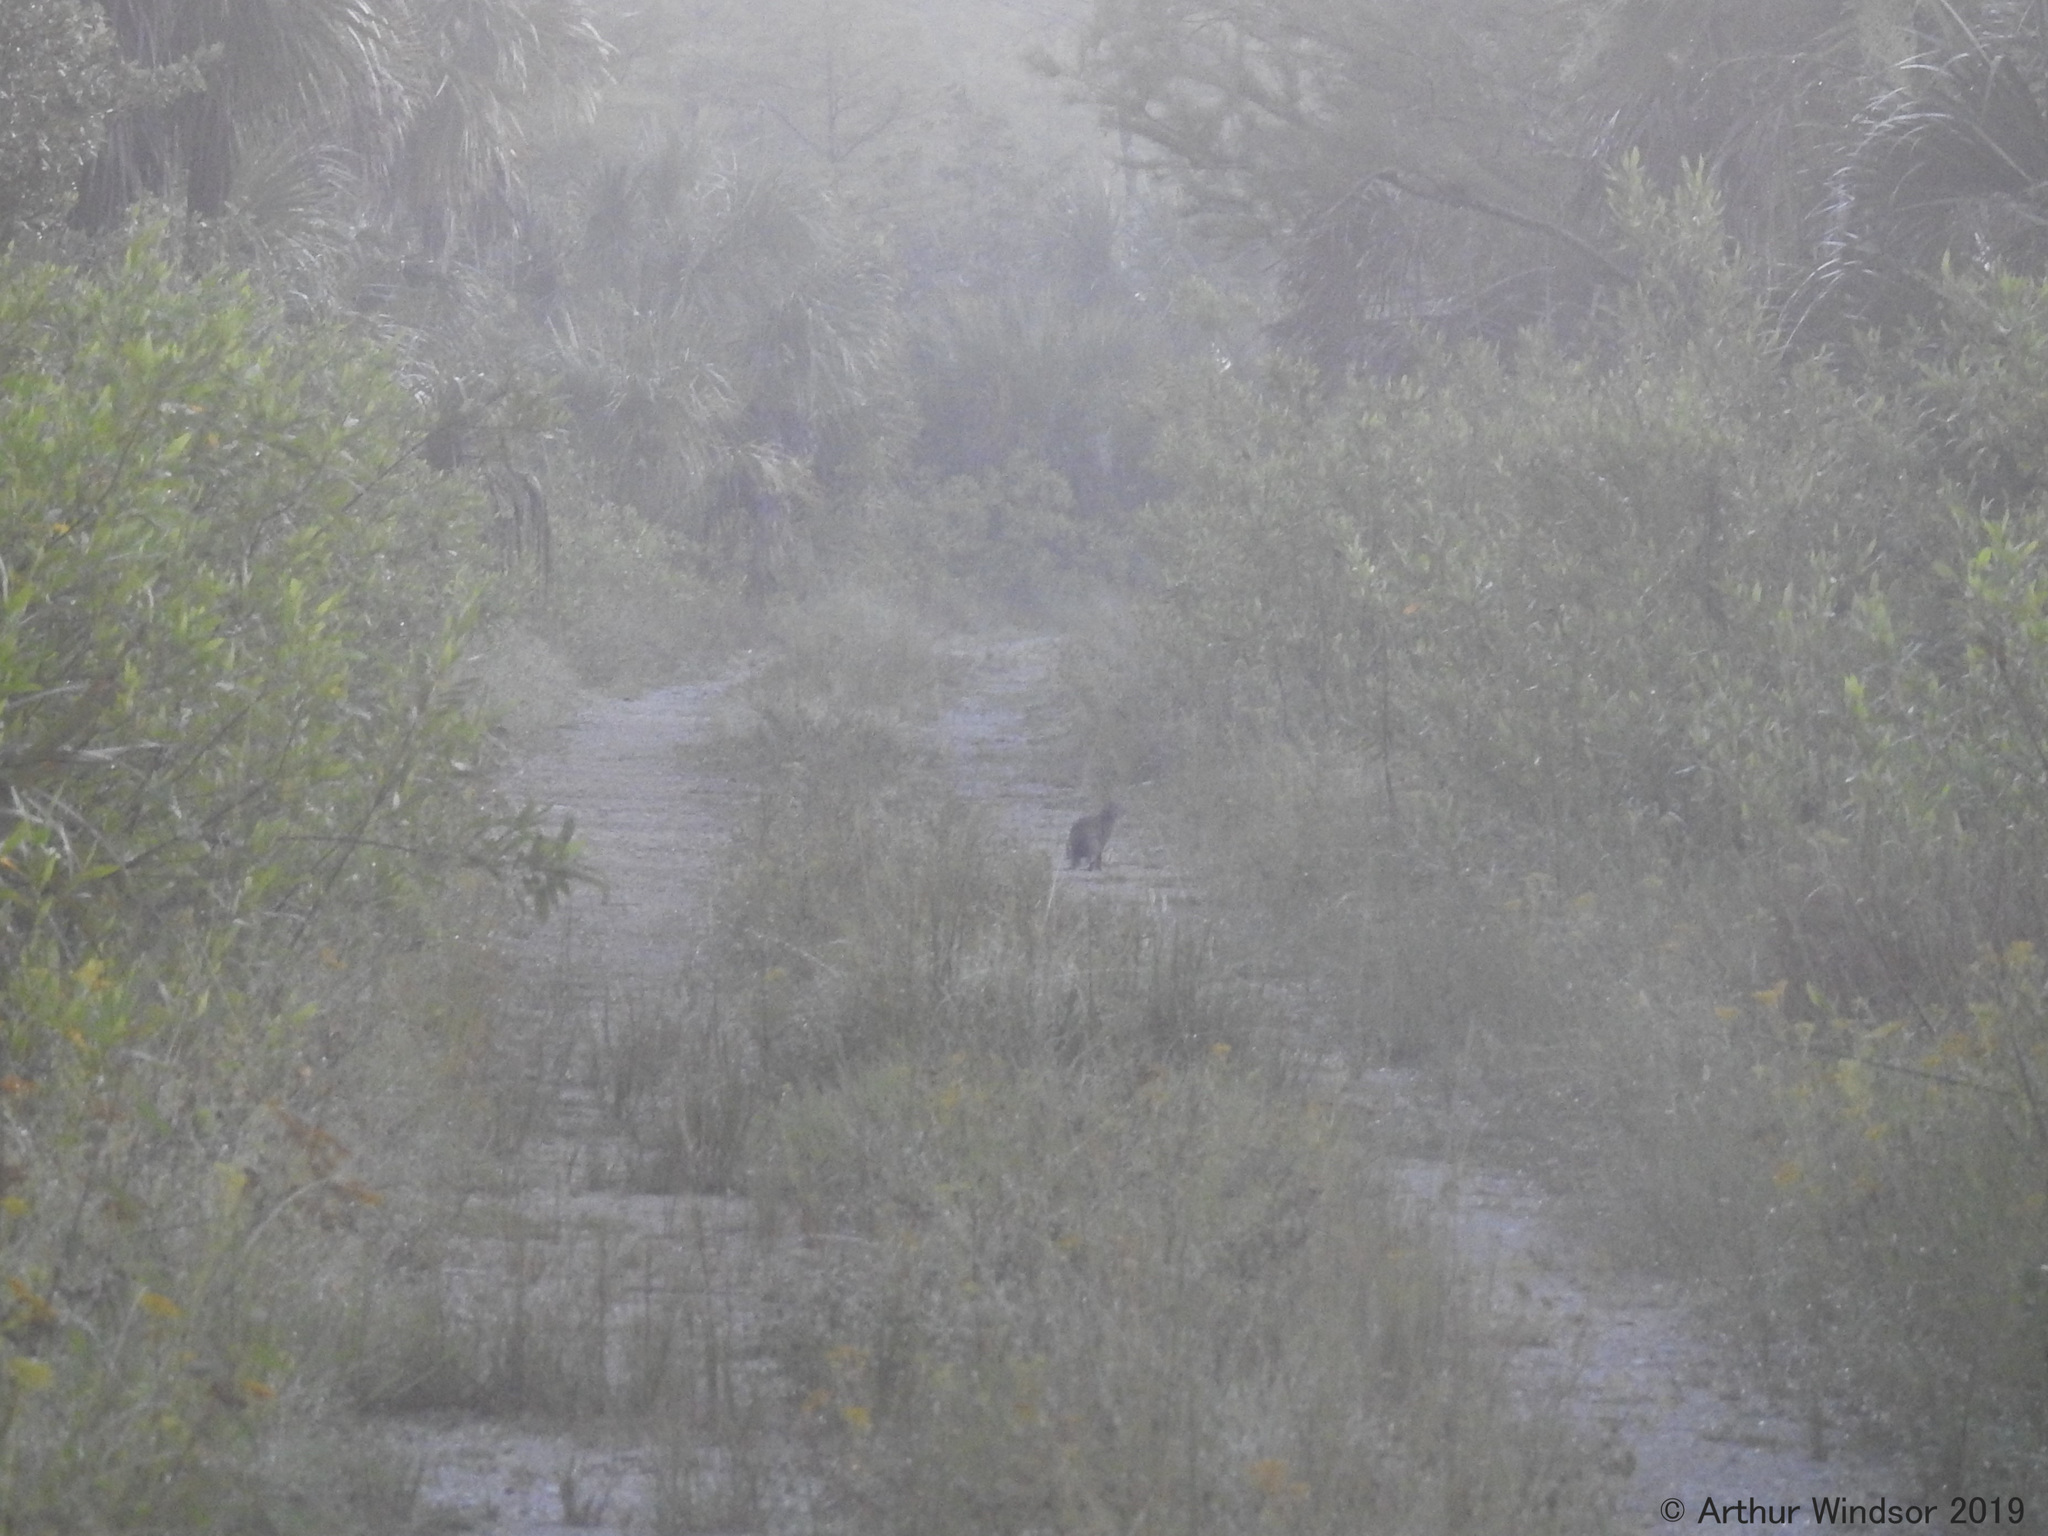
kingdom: Animalia
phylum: Chordata
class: Mammalia
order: Lagomorpha
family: Leporidae
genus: Sylvilagus
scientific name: Sylvilagus palustris
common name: Marsh rabbit
